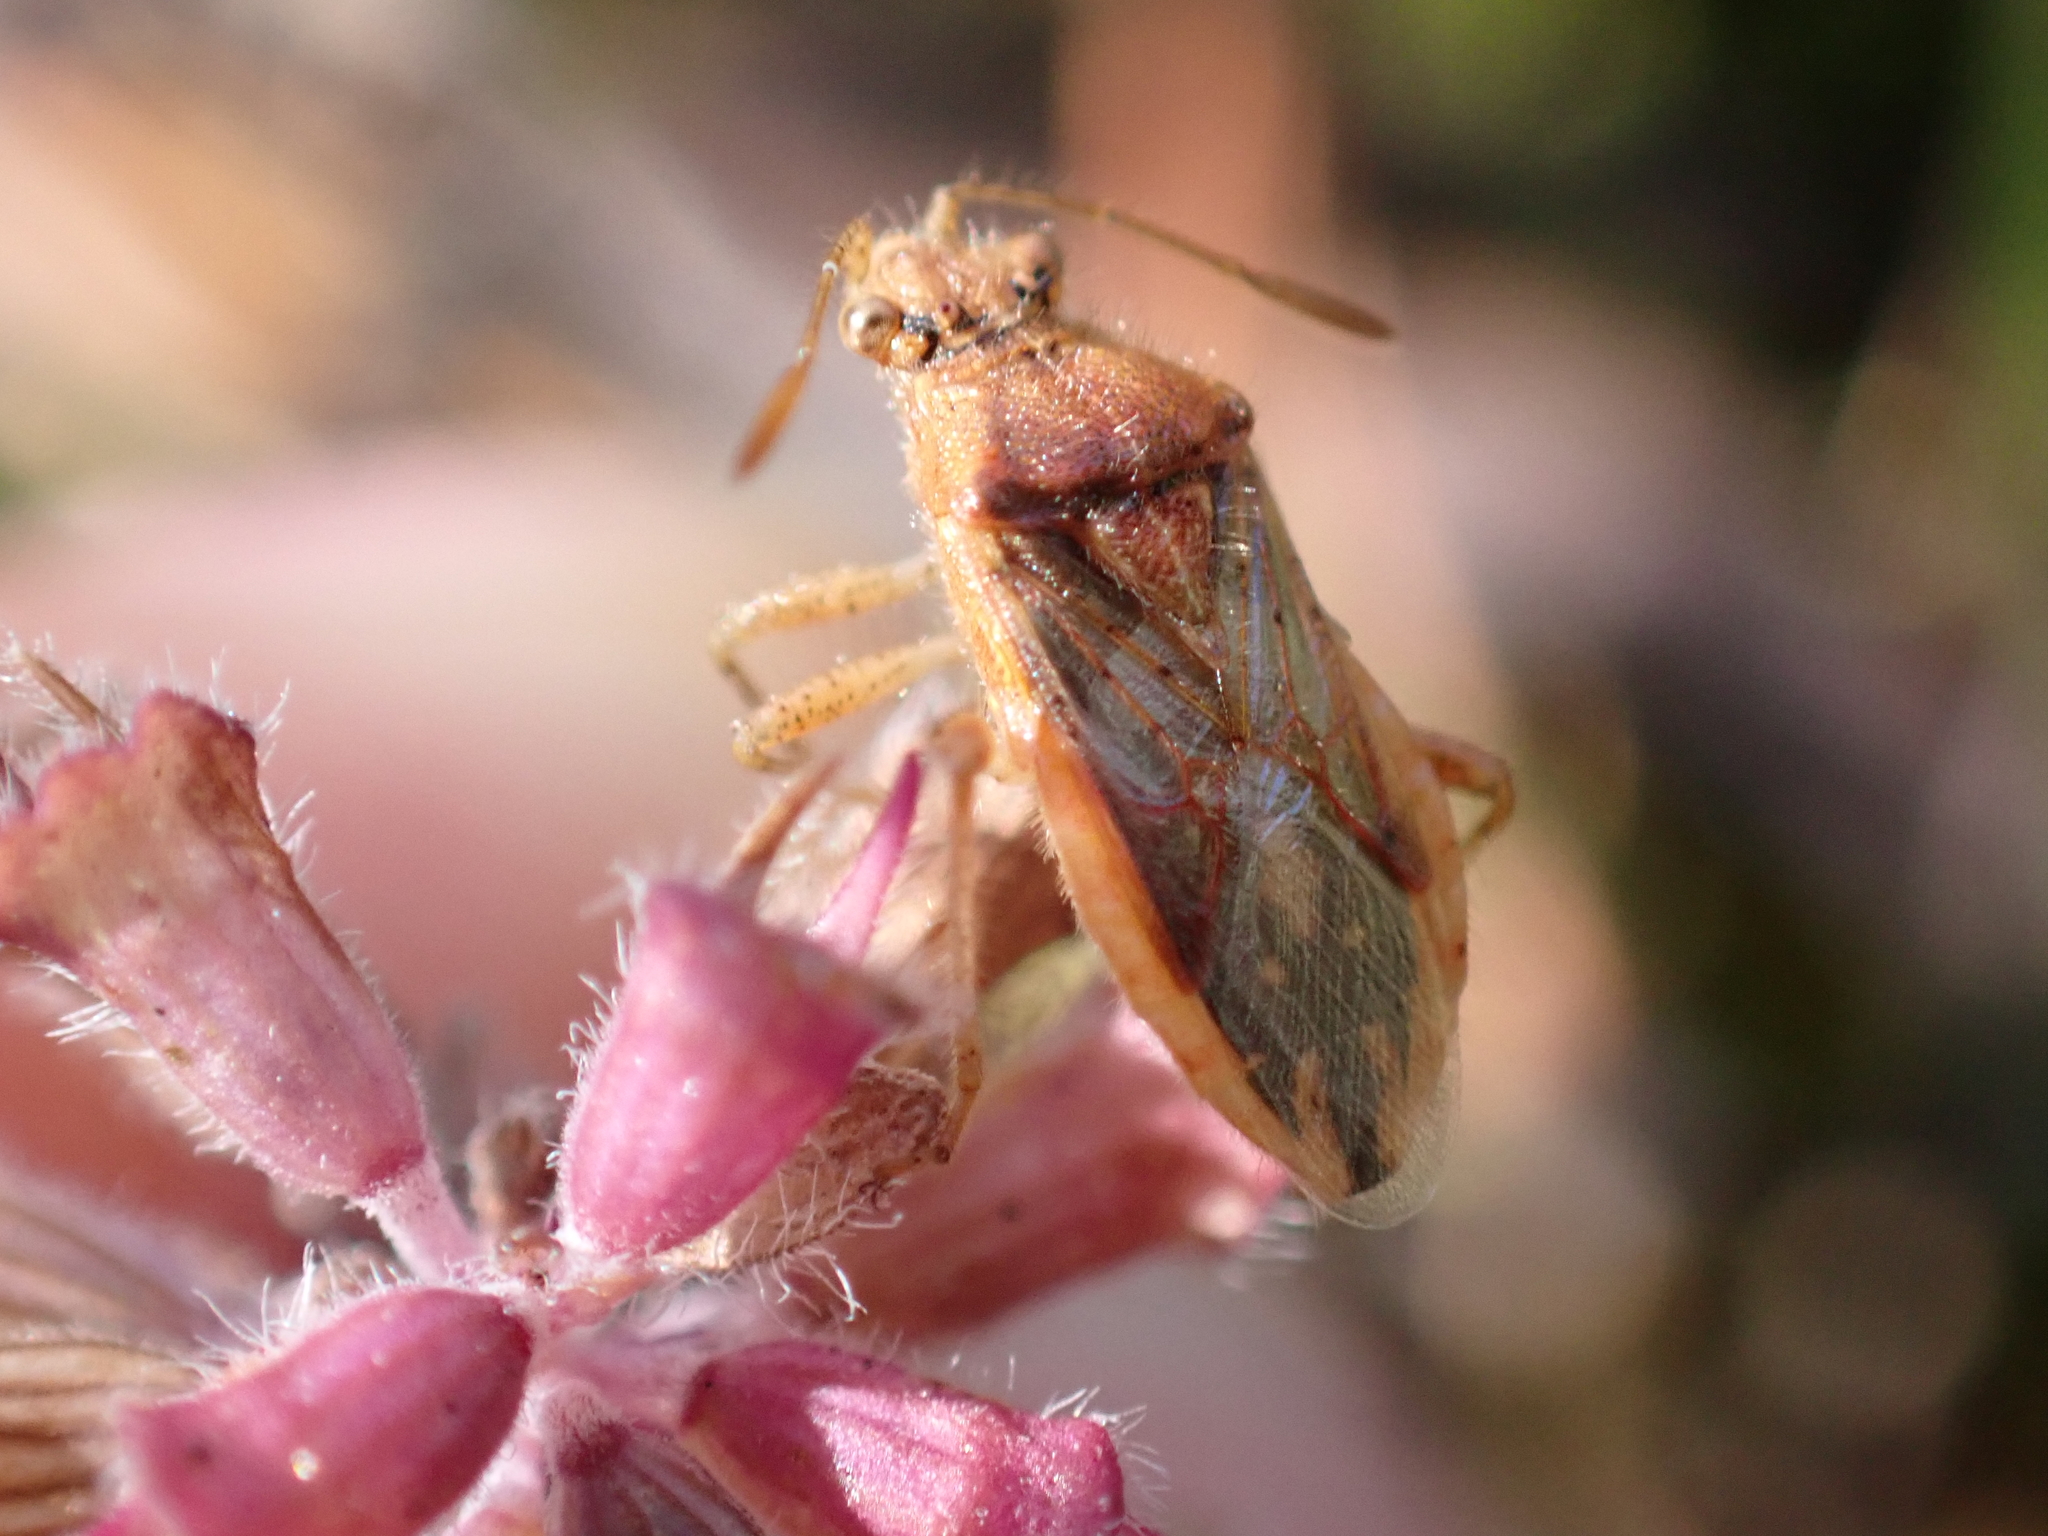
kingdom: Animalia
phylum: Arthropoda
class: Insecta
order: Hemiptera
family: Rhopalidae
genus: Rhopalus
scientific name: Rhopalus parumpunctatus
